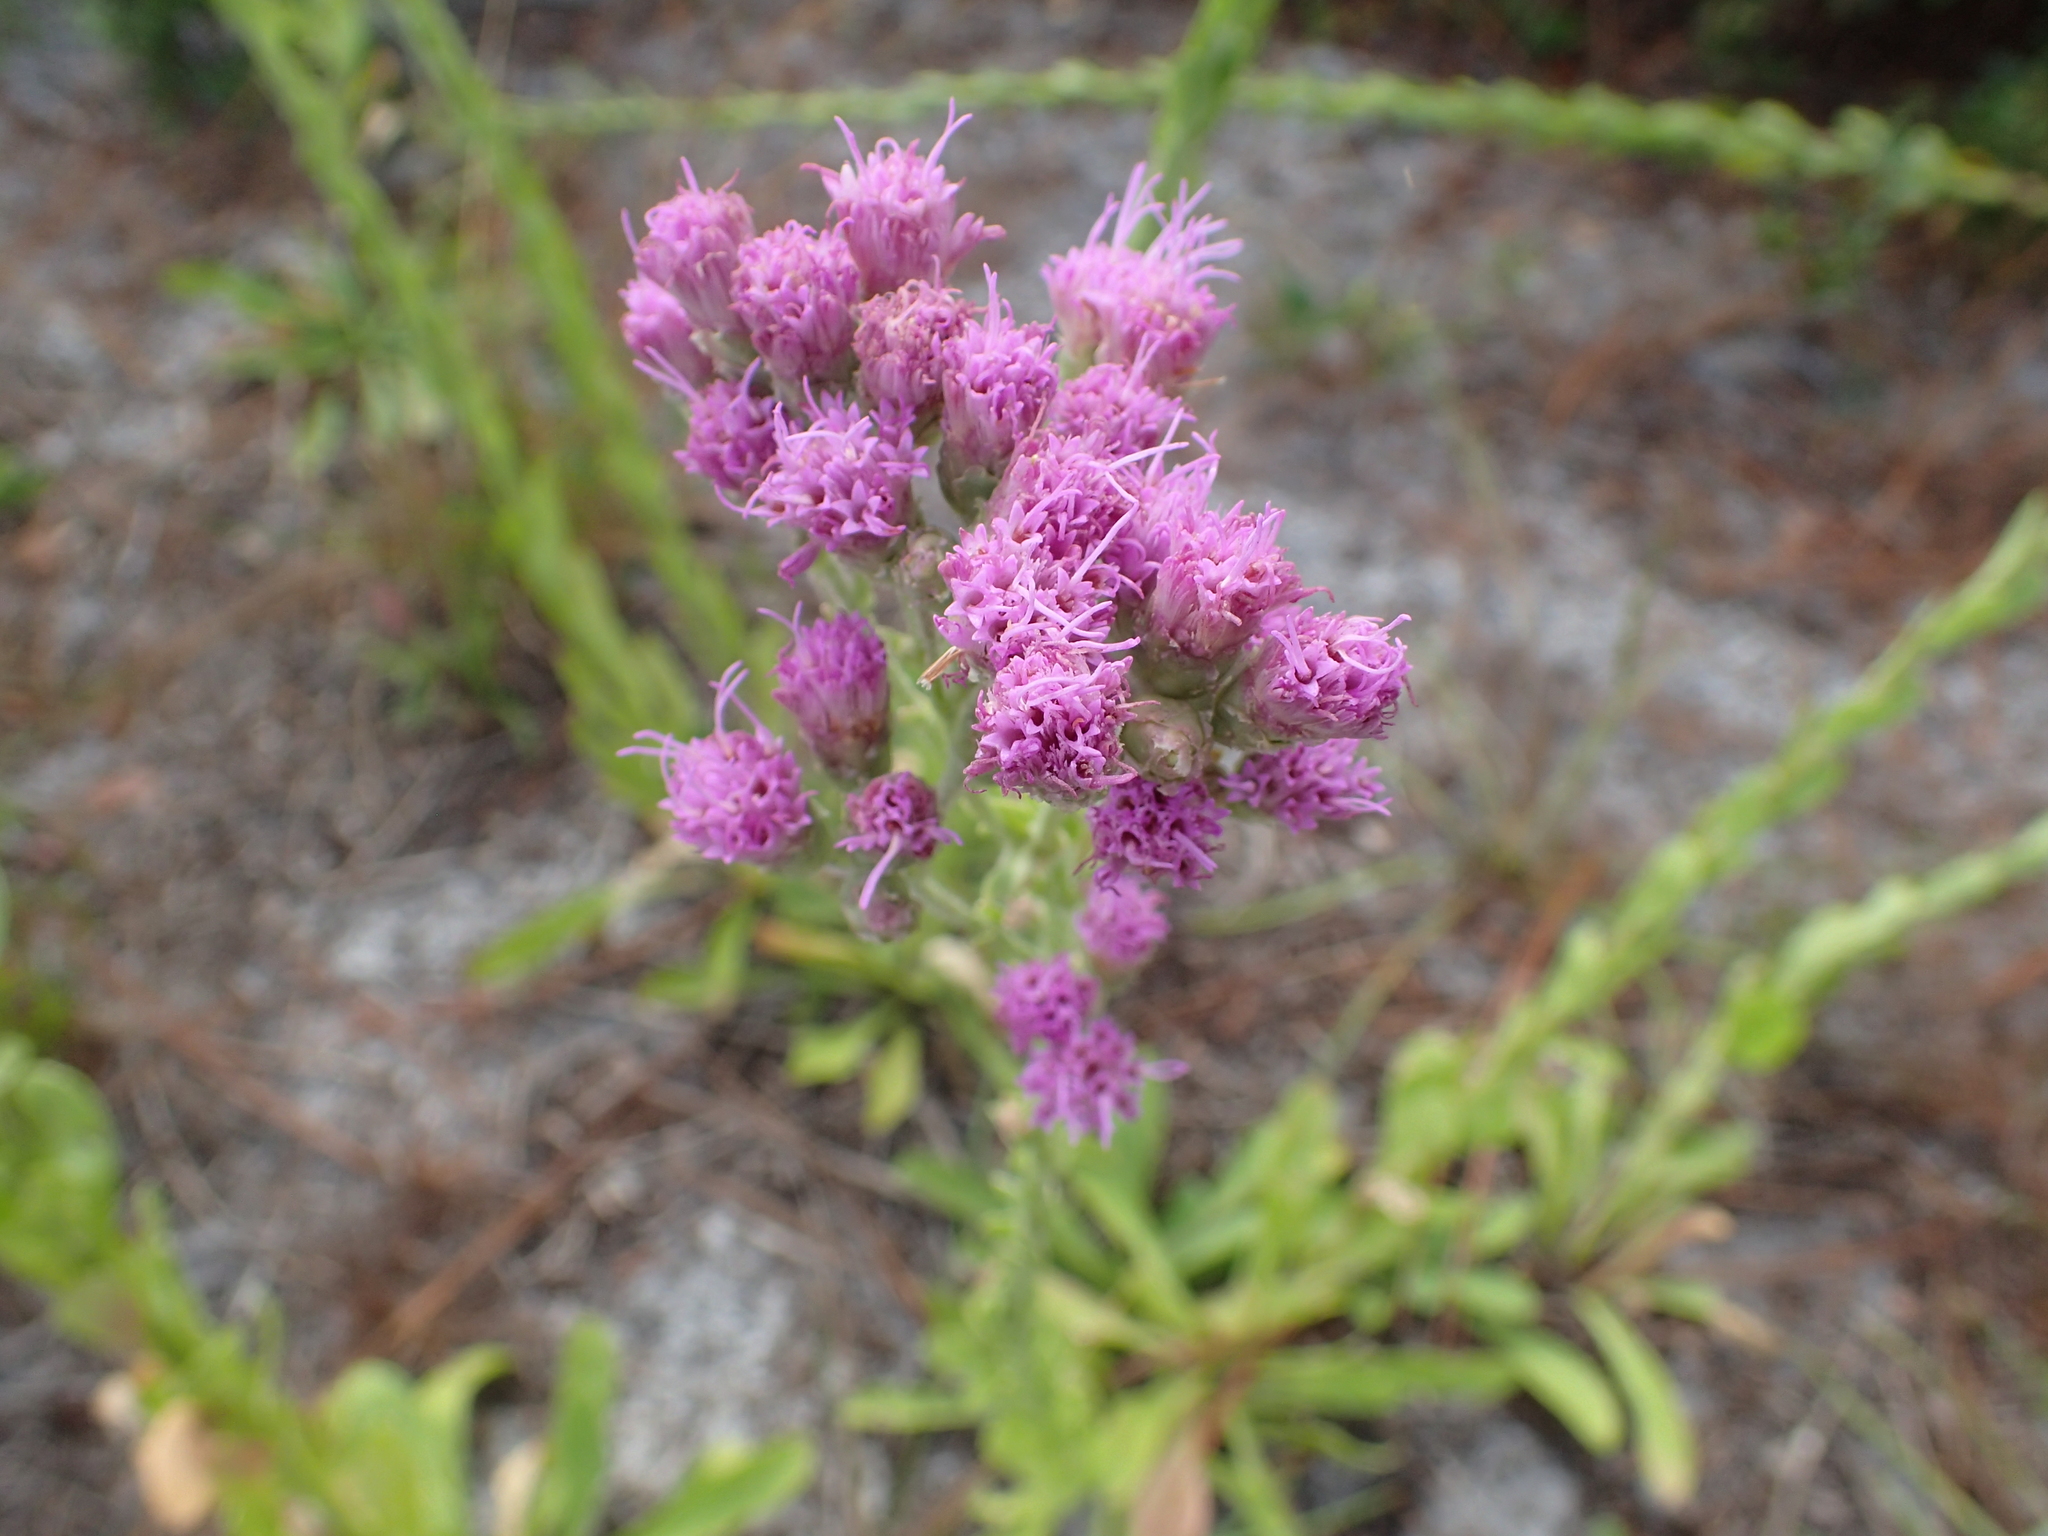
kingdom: Plantae
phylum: Tracheophyta
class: Magnoliopsida
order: Asterales
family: Asteraceae
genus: Carphephorus
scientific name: Carphephorus corymbosus
